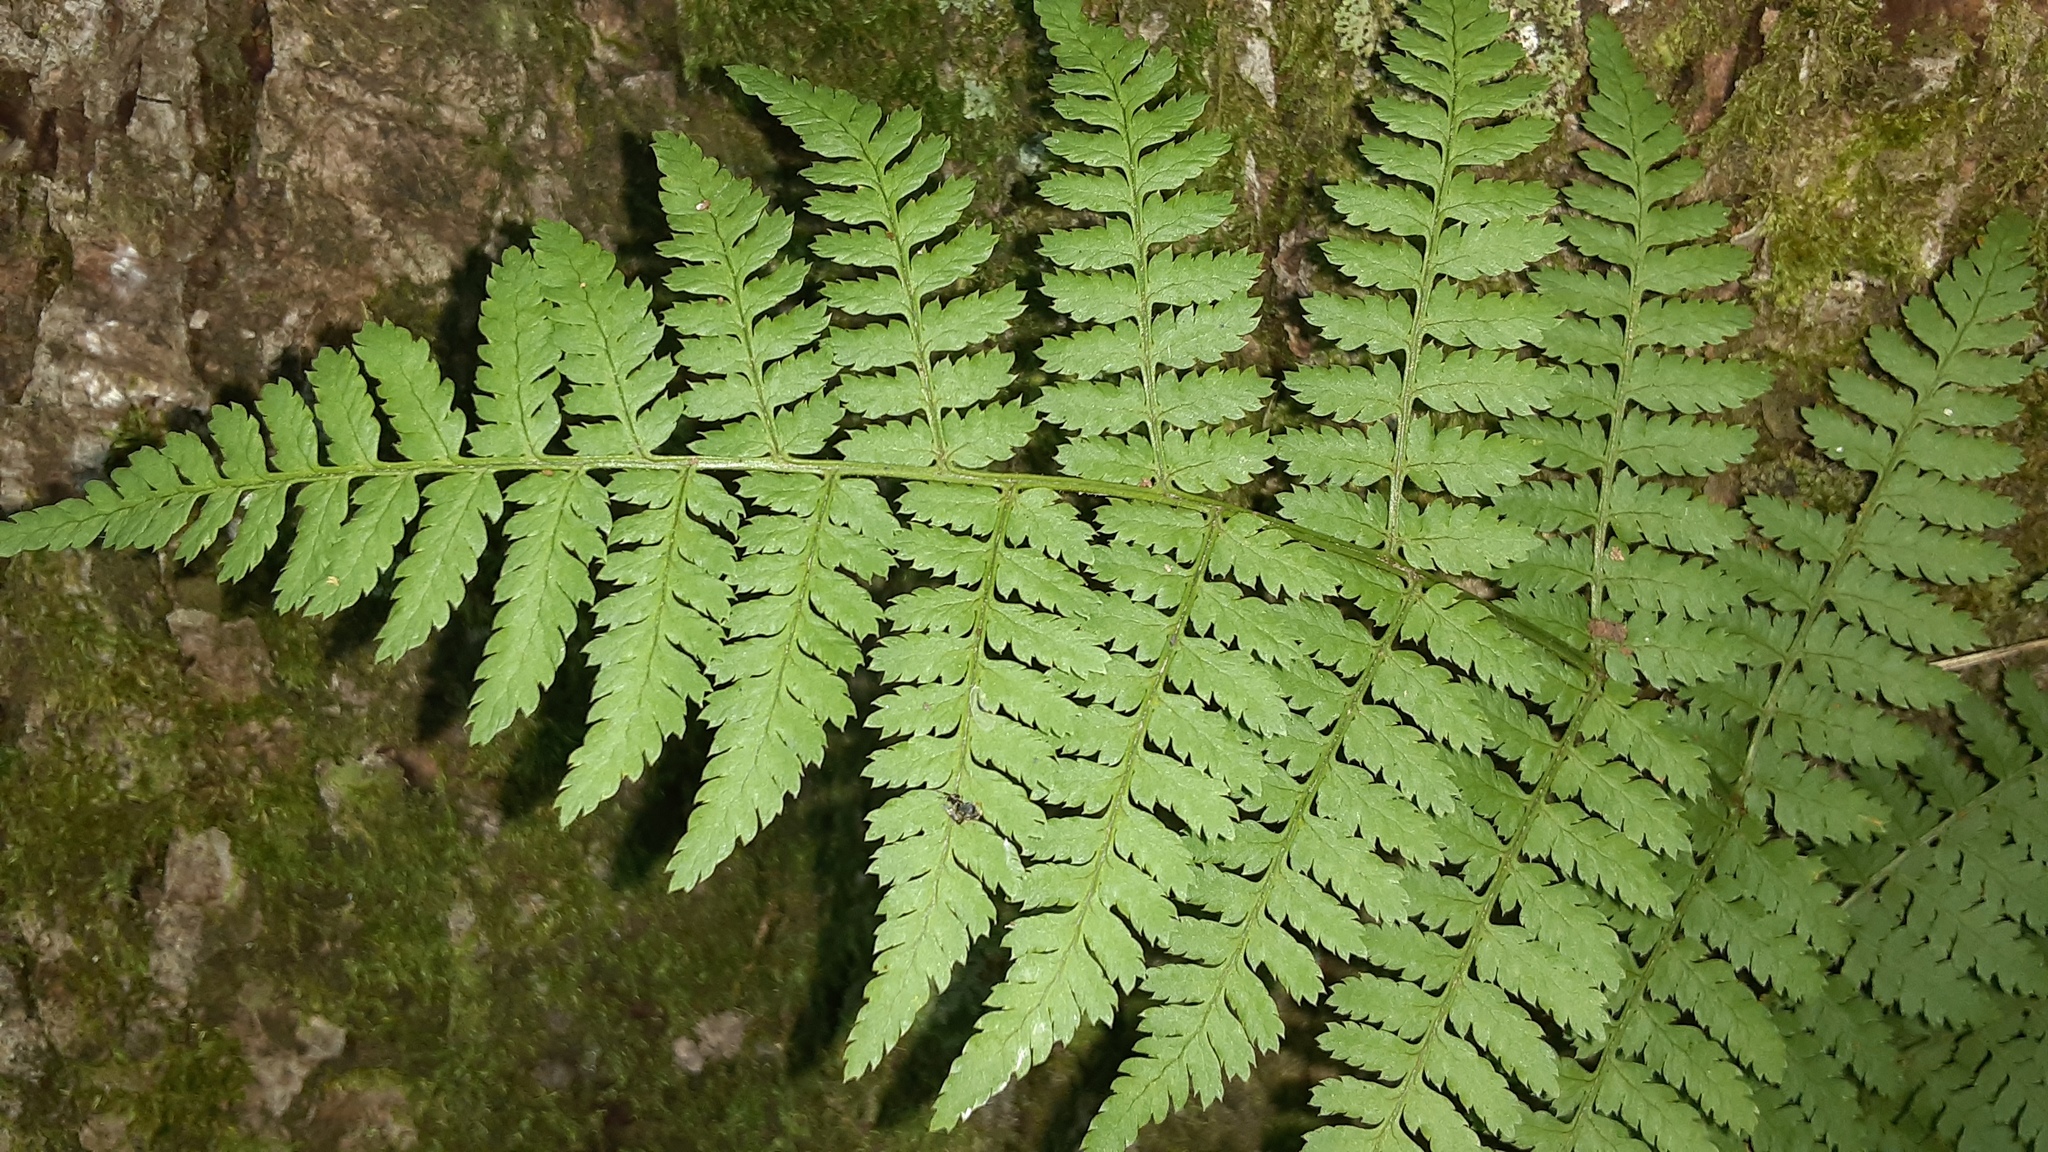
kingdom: Plantae
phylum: Tracheophyta
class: Polypodiopsida
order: Polypodiales
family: Dryopteridaceae
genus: Dryopteris
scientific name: Dryopteris intermedia
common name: Evergreen wood fern
